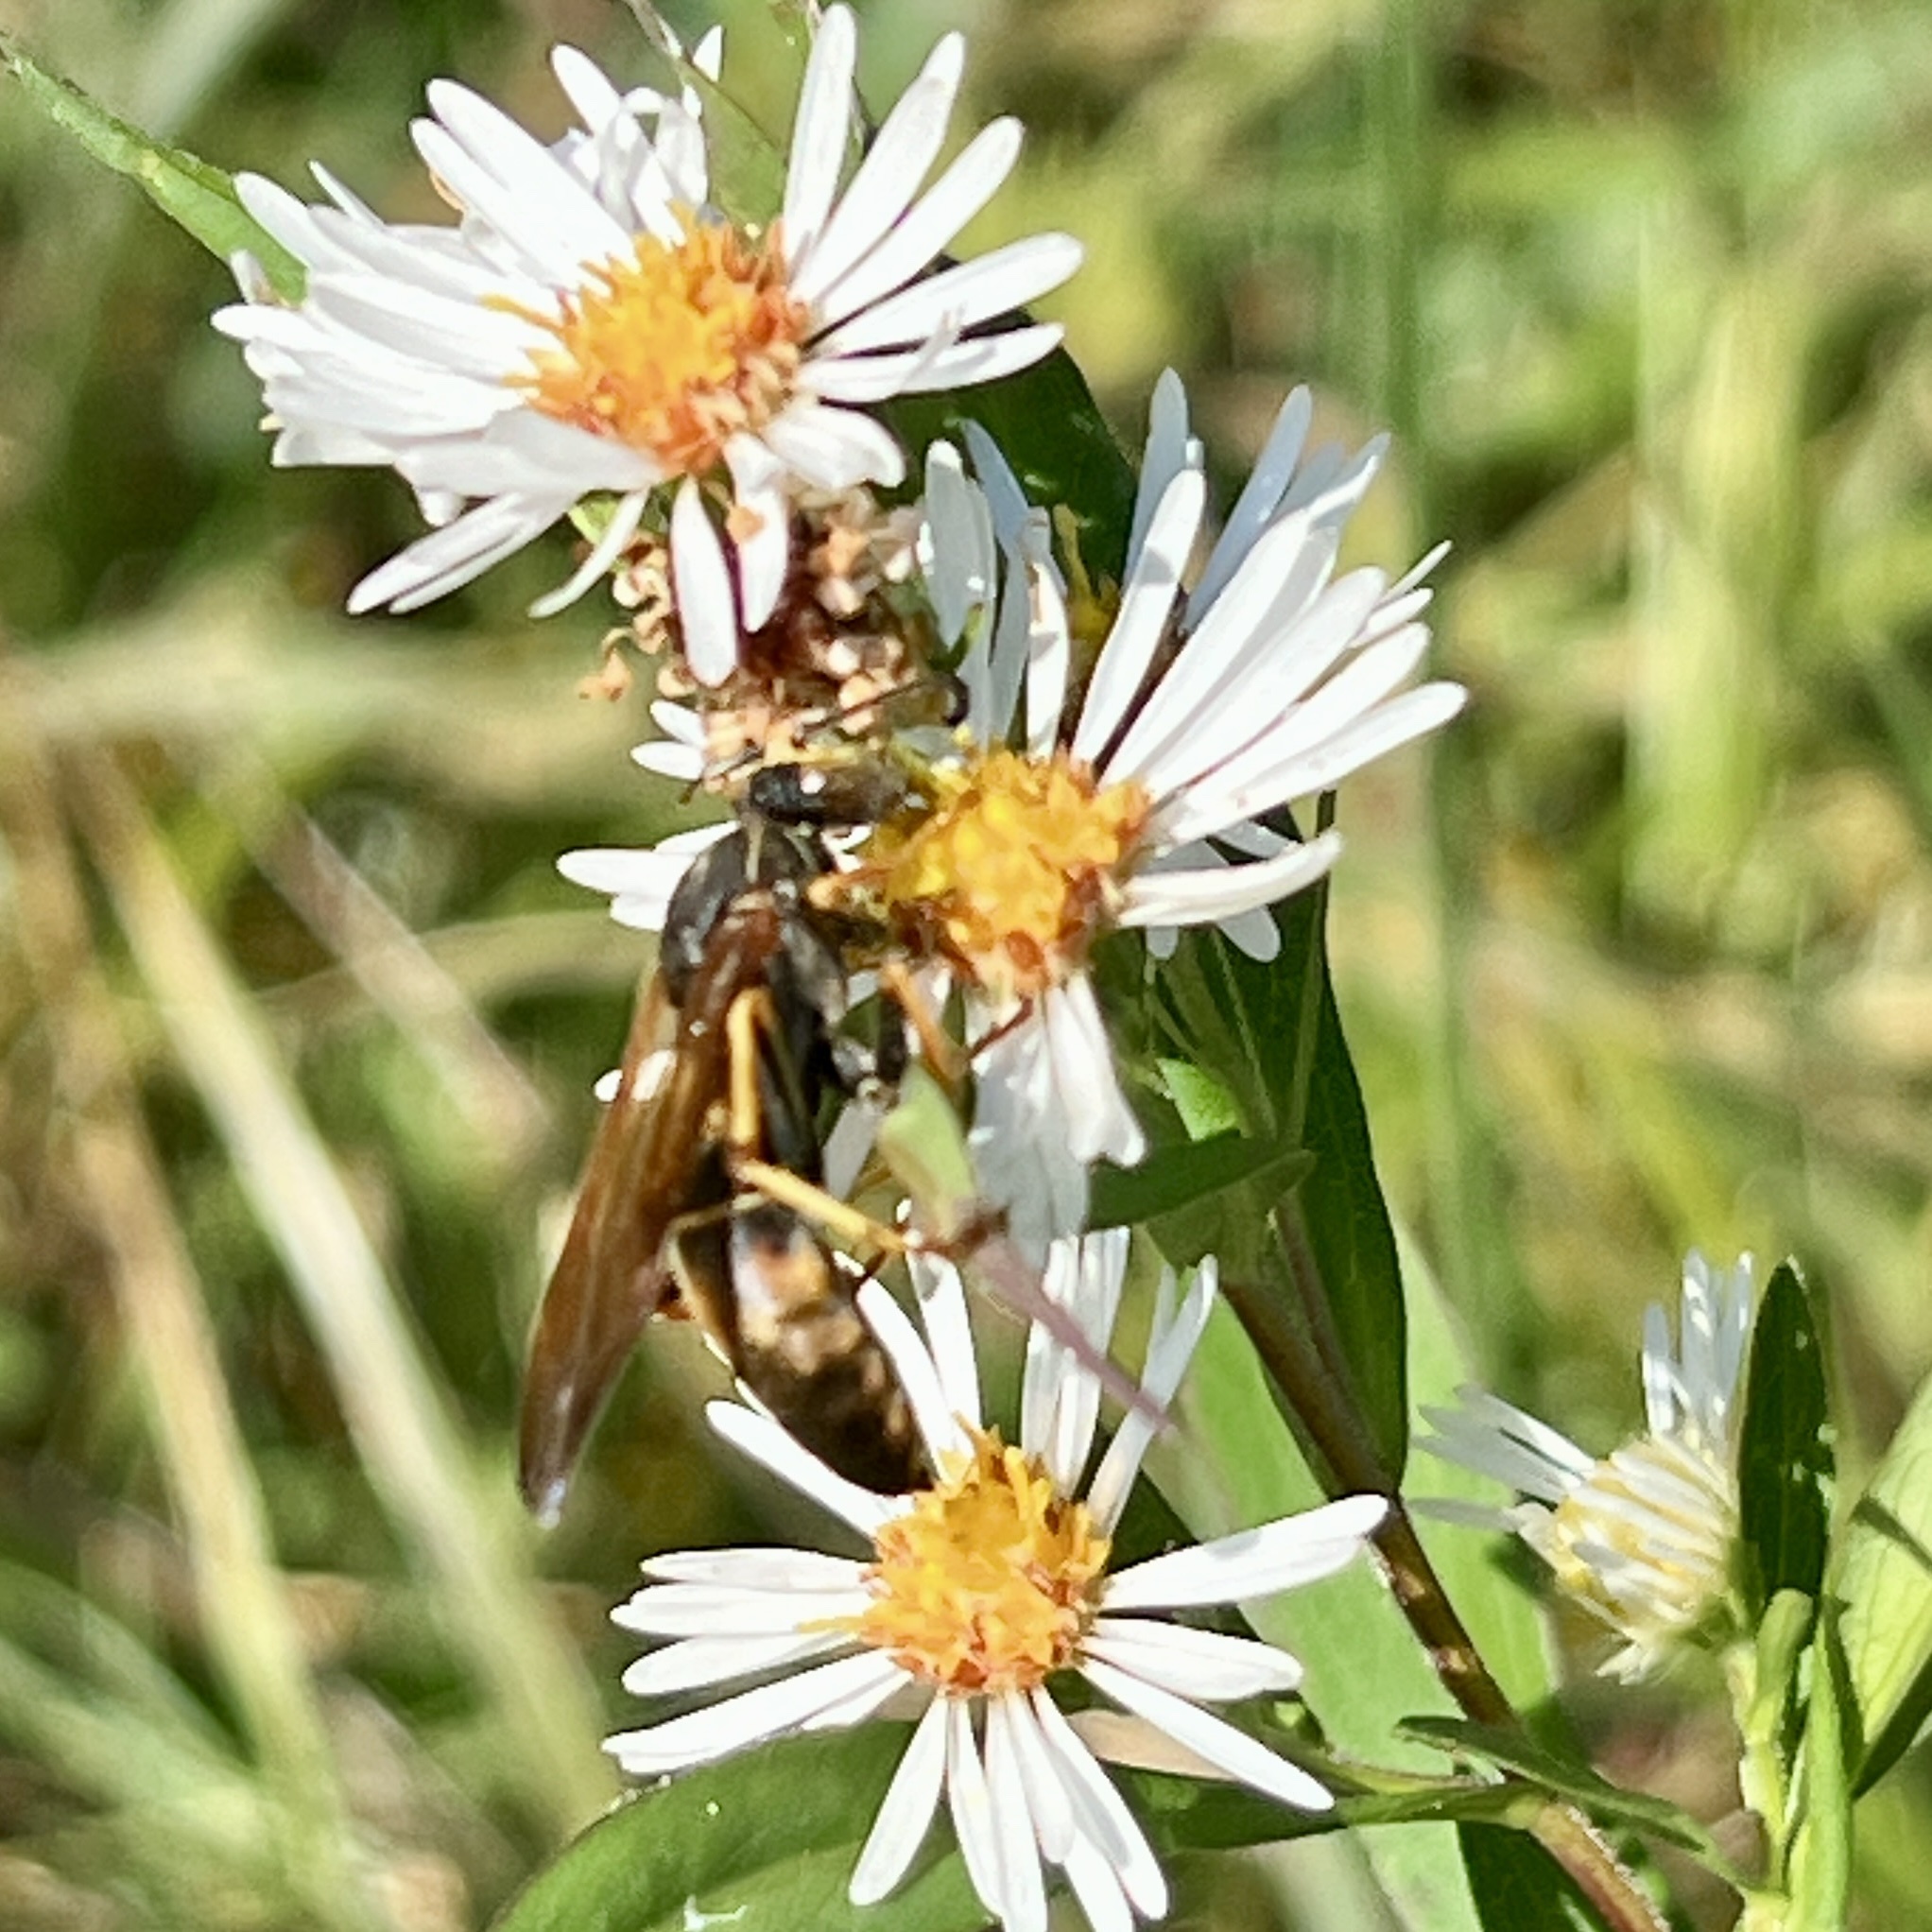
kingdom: Animalia
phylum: Arthropoda
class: Insecta
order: Hymenoptera
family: Eumenidae
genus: Polistes
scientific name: Polistes fuscatus
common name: Dark paper wasp
